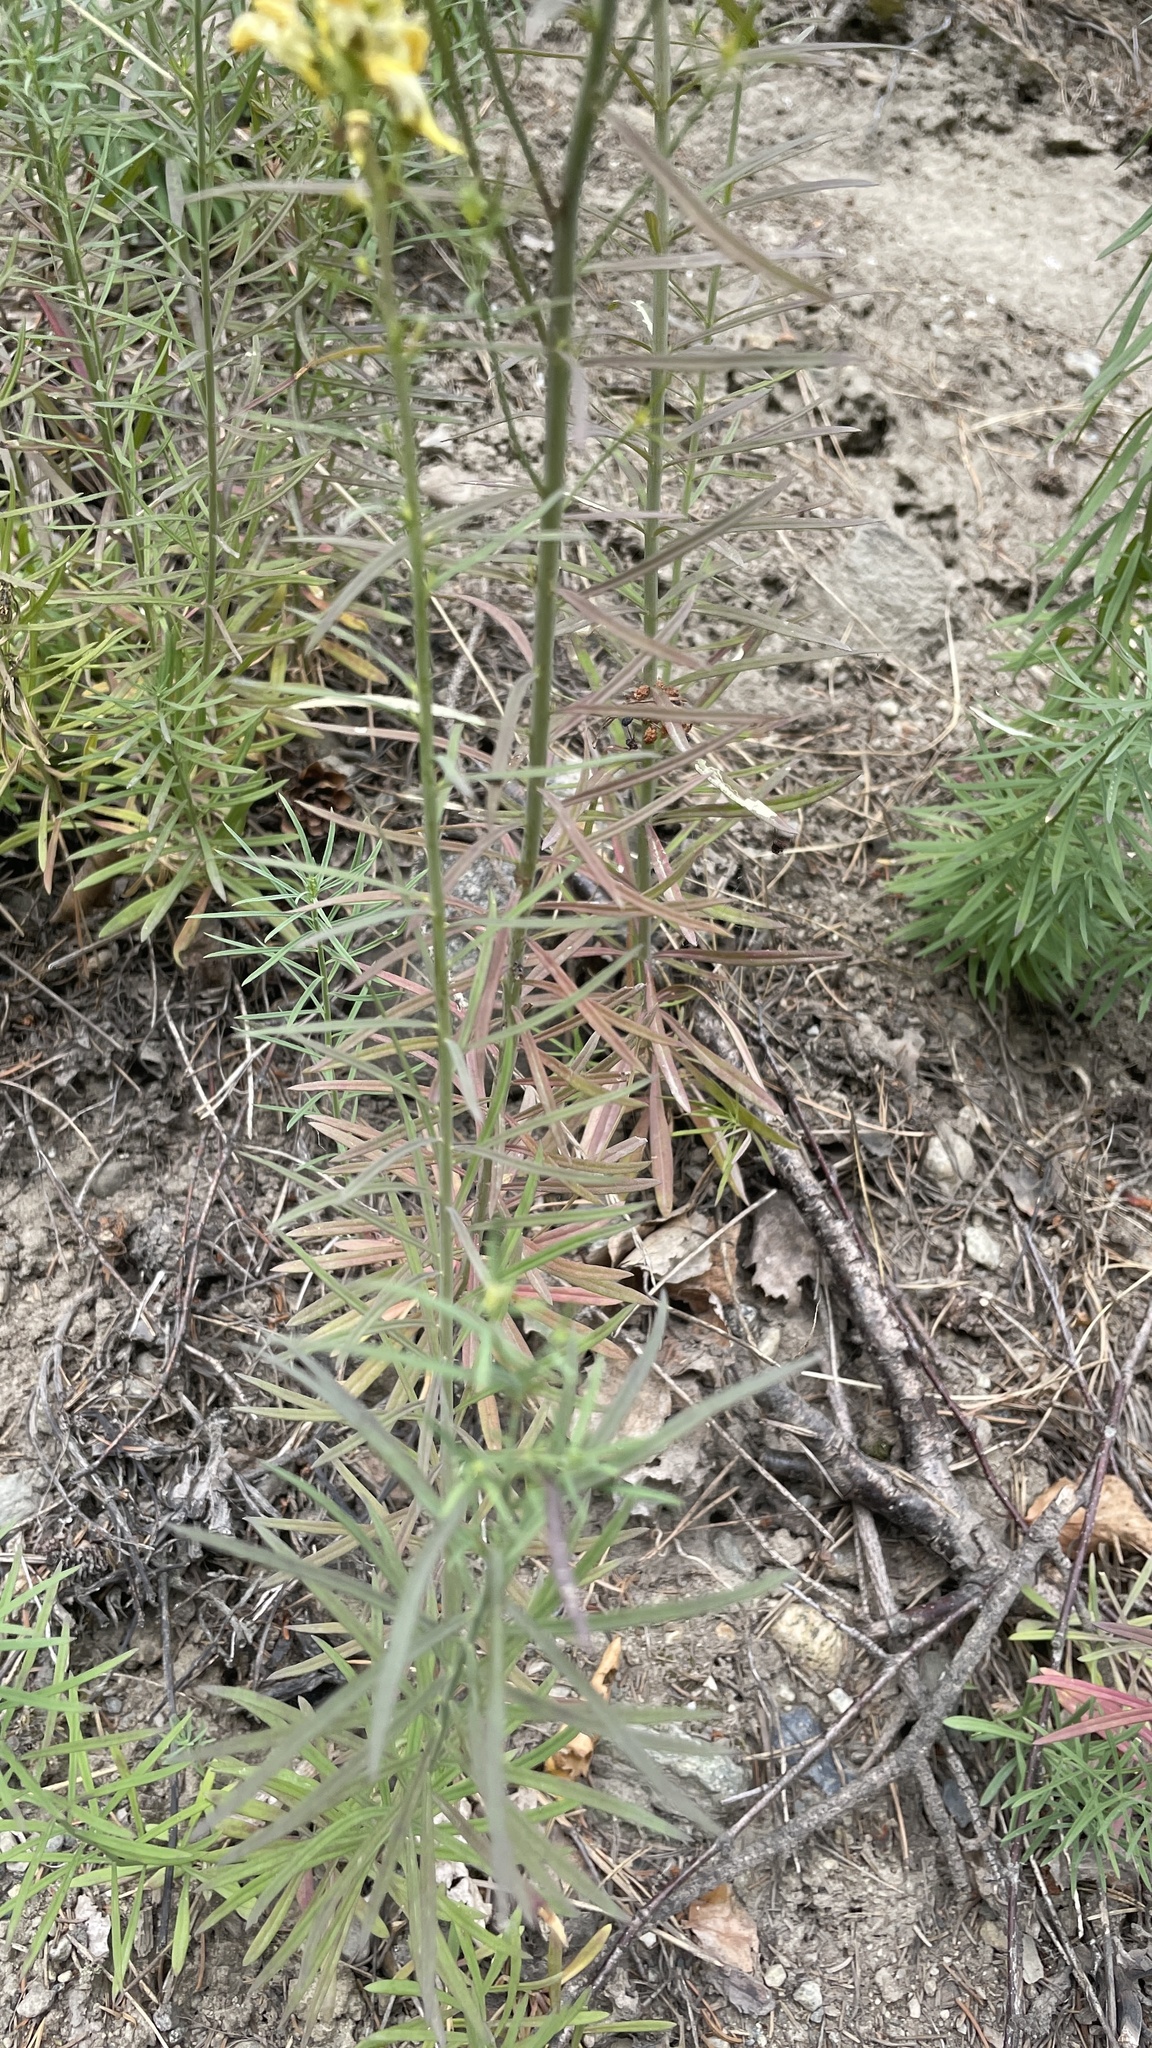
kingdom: Plantae
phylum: Tracheophyta
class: Magnoliopsida
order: Lamiales
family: Plantaginaceae
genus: Linaria
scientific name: Linaria vulgaris
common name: Butter and eggs
